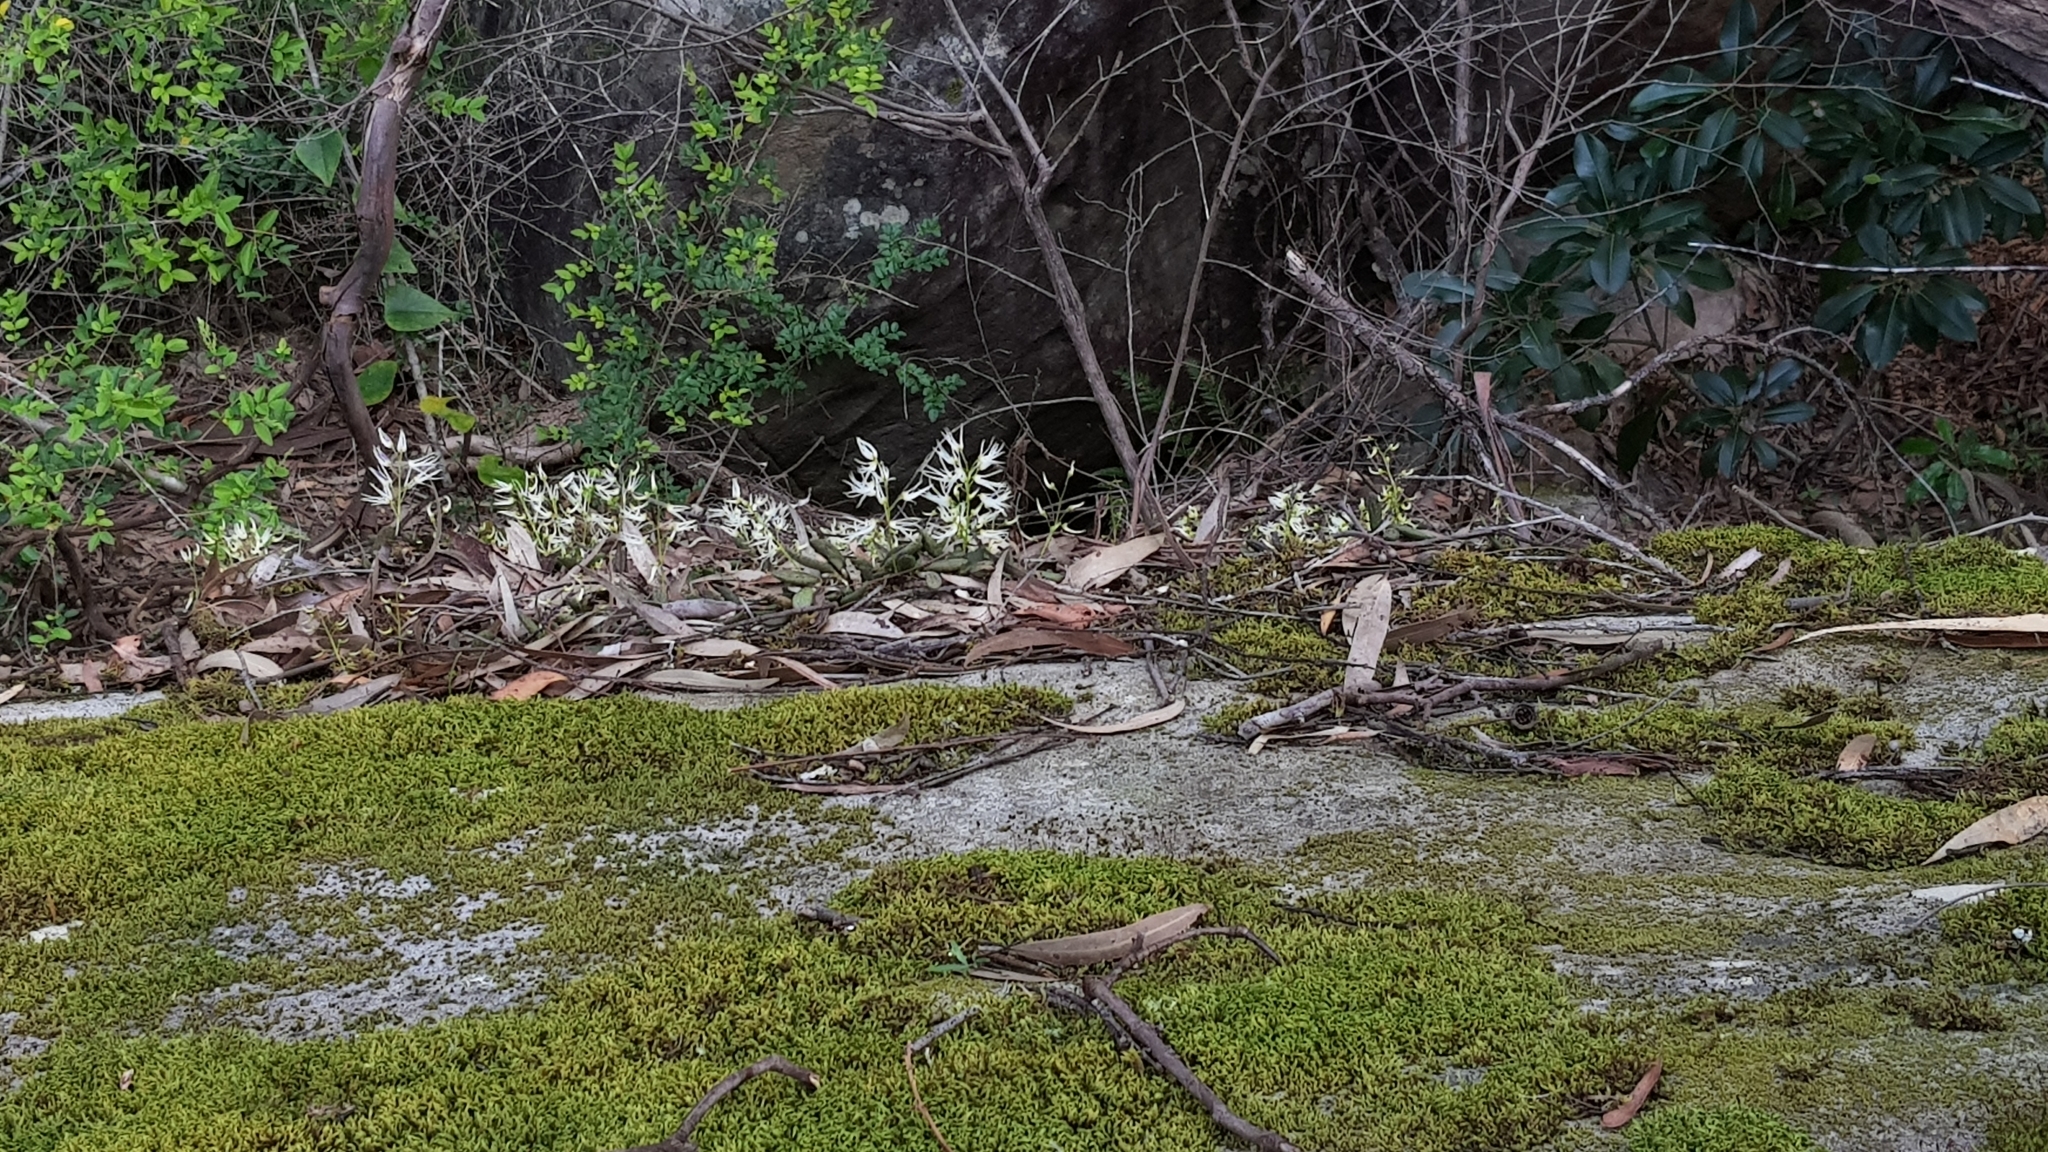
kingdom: Plantae
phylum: Tracheophyta
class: Liliopsida
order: Asparagales
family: Orchidaceae
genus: Dendrobium
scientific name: Dendrobium linguiforme
